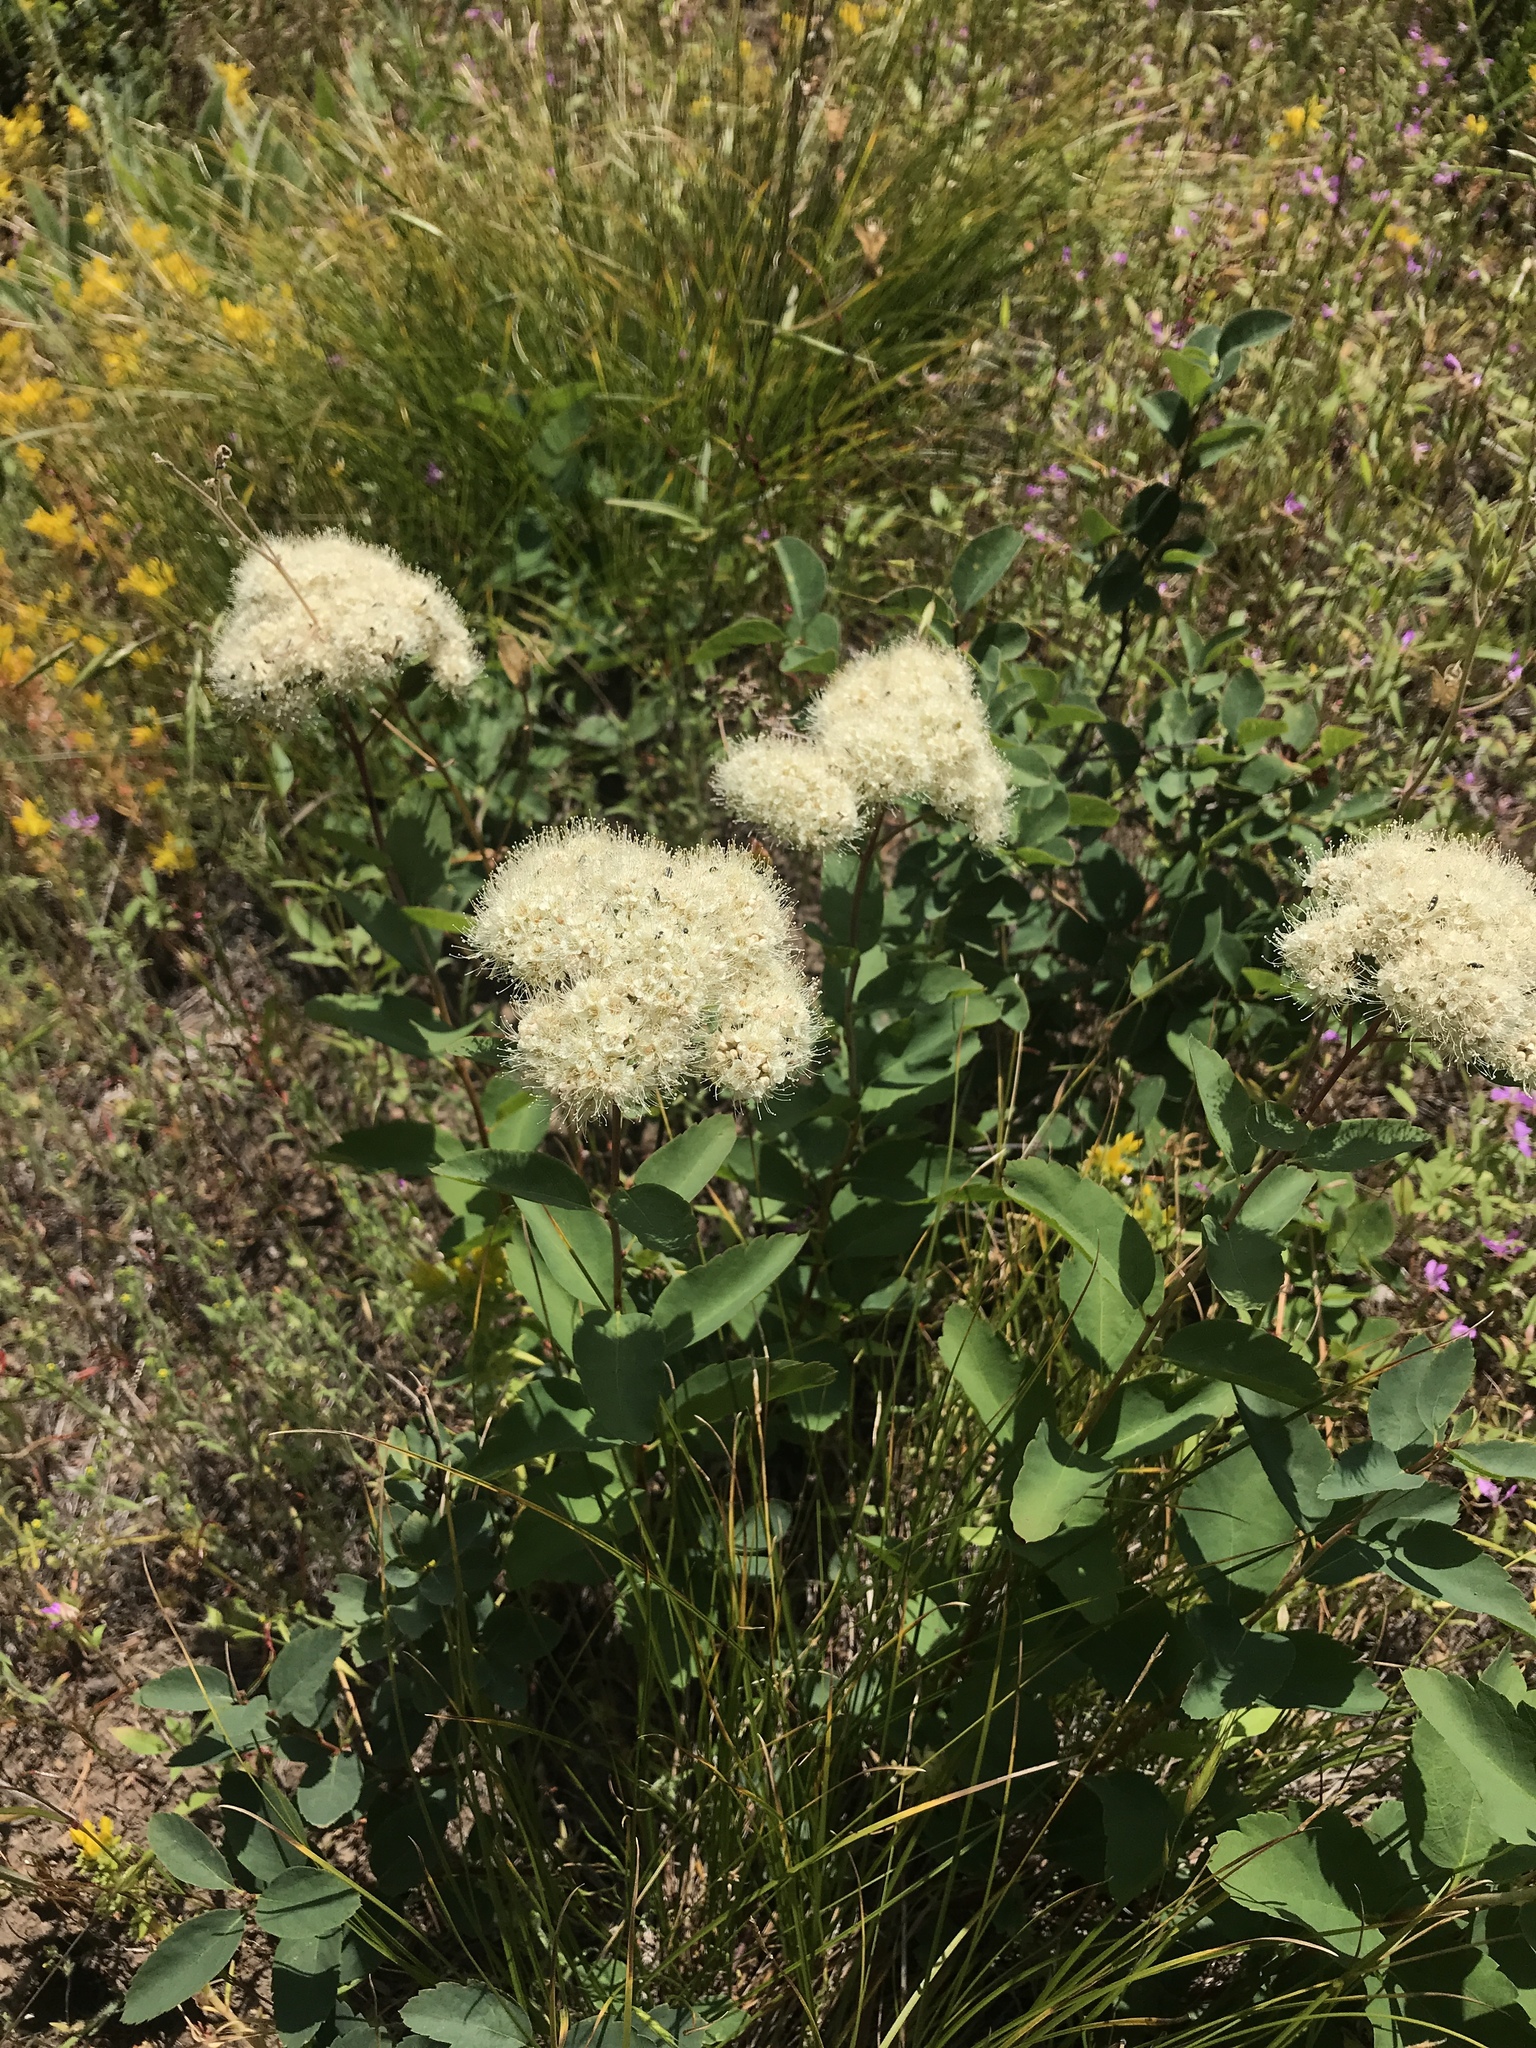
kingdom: Plantae
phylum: Tracheophyta
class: Magnoliopsida
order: Rosales
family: Rosaceae
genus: Spiraea
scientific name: Spiraea lucida
